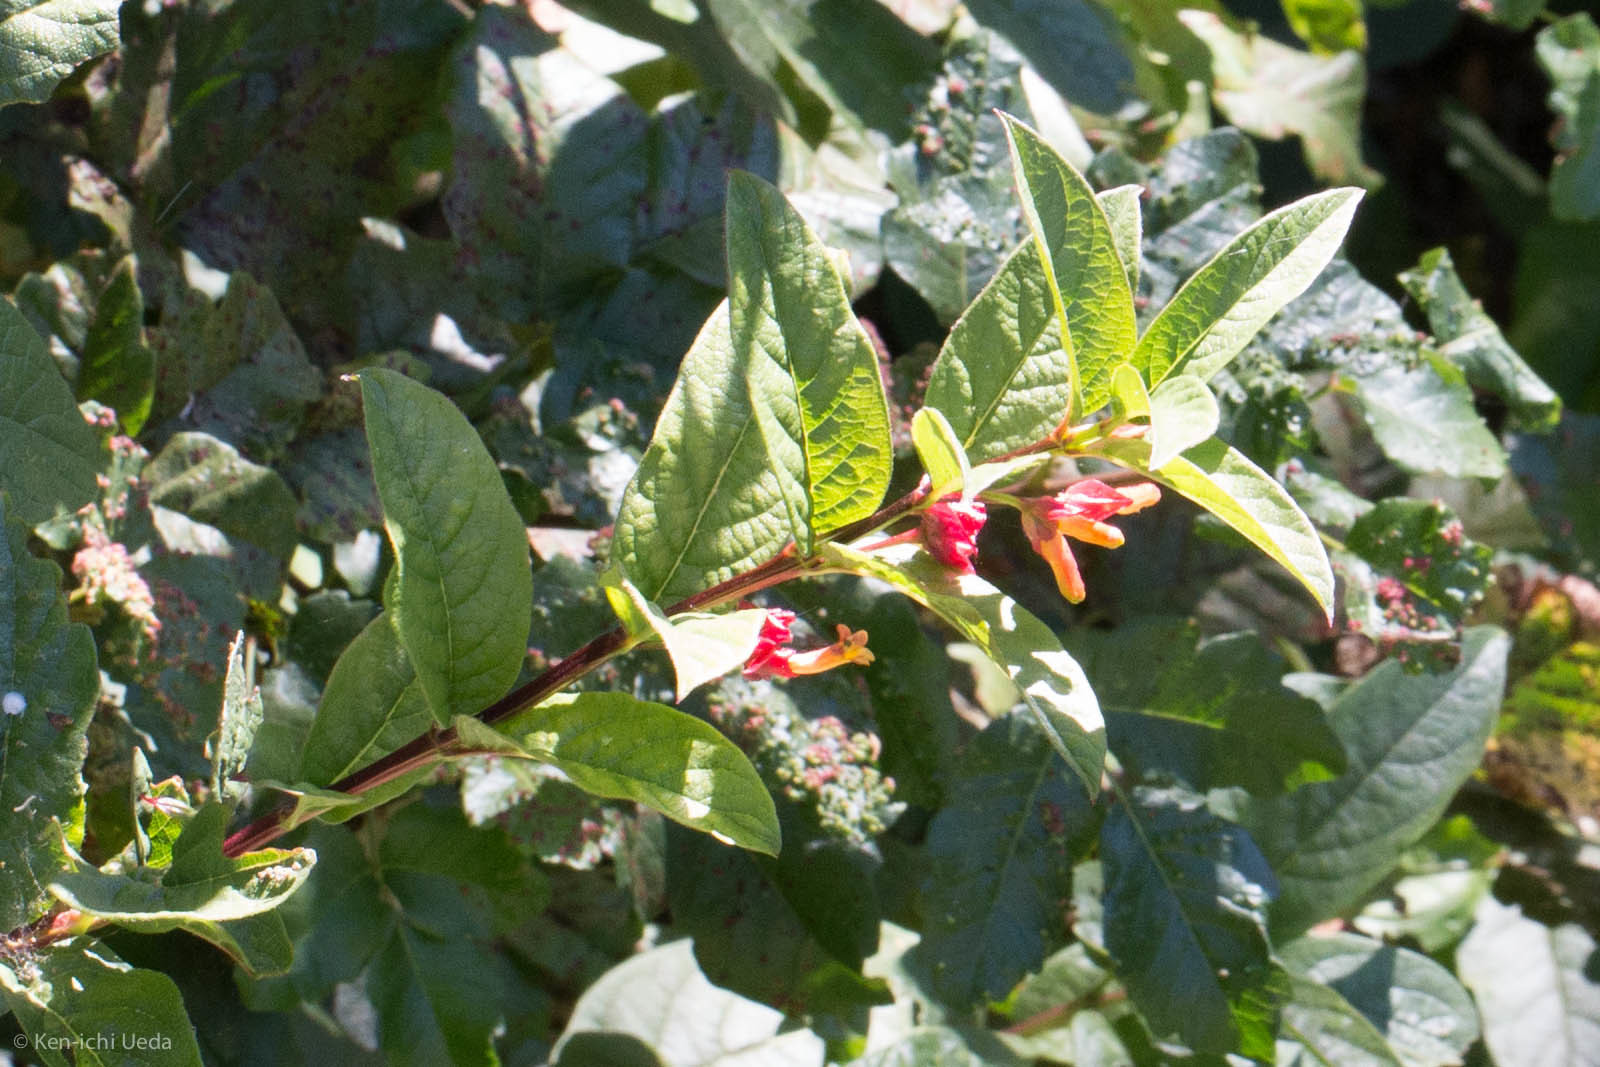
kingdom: Plantae
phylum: Tracheophyta
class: Magnoliopsida
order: Dipsacales
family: Caprifoliaceae
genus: Lonicera
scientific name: Lonicera involucrata
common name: Californian honeysuckle
